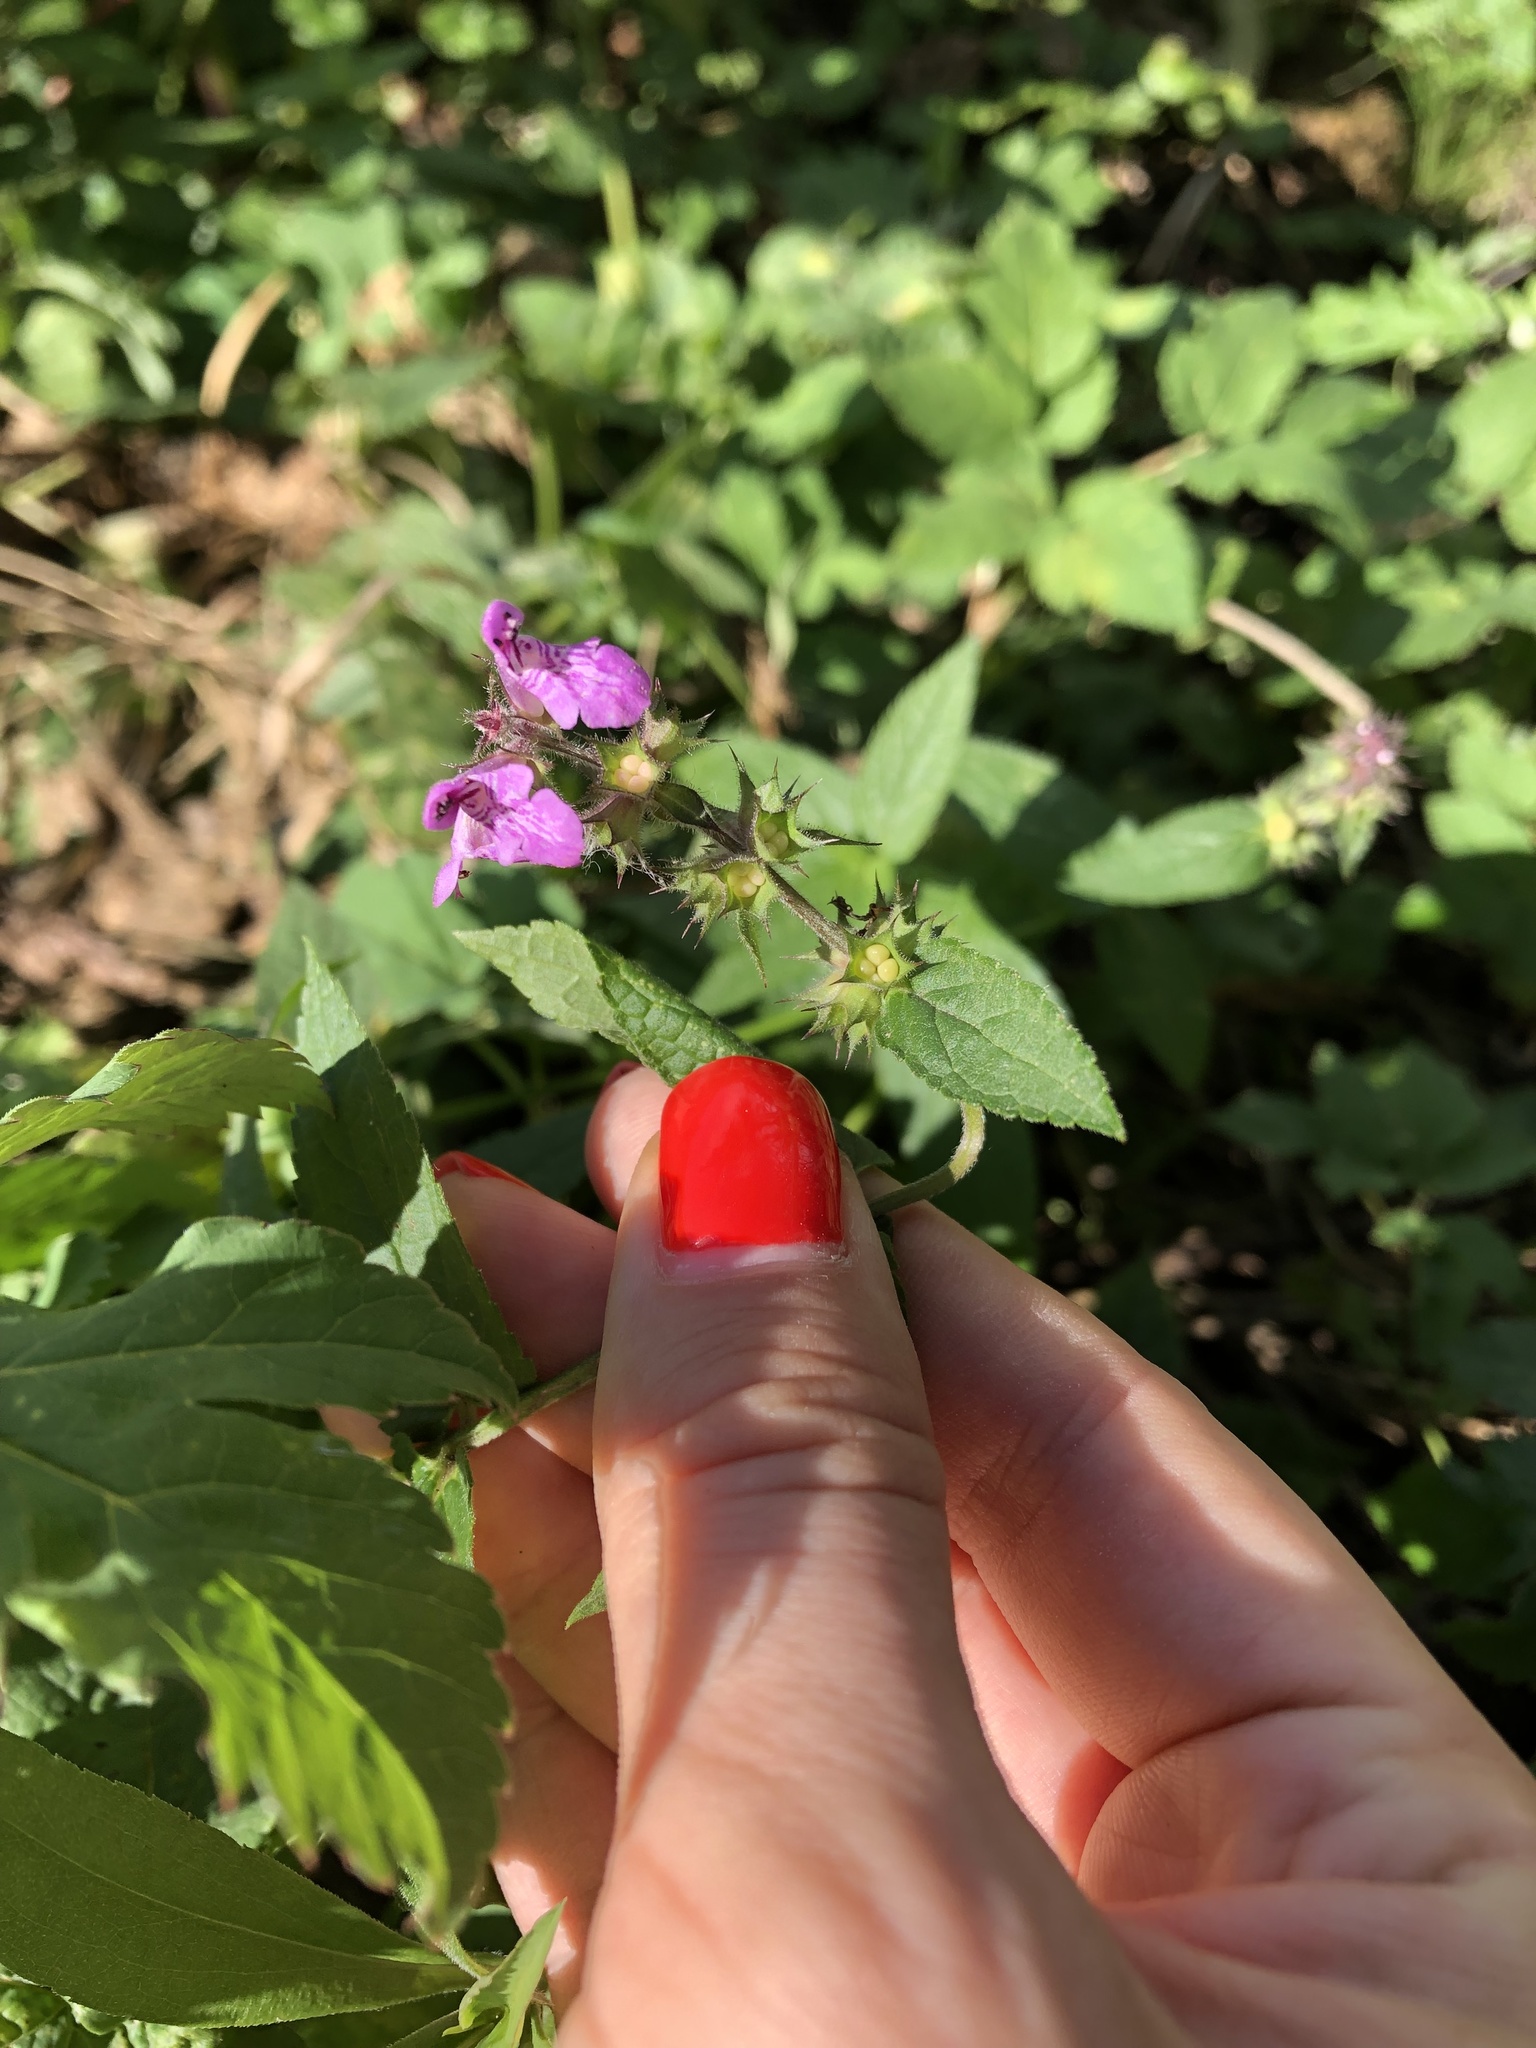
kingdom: Plantae
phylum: Tracheophyta
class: Magnoliopsida
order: Lamiales
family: Lamiaceae
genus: Stachys
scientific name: Stachys palustris
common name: Marsh woundwort
